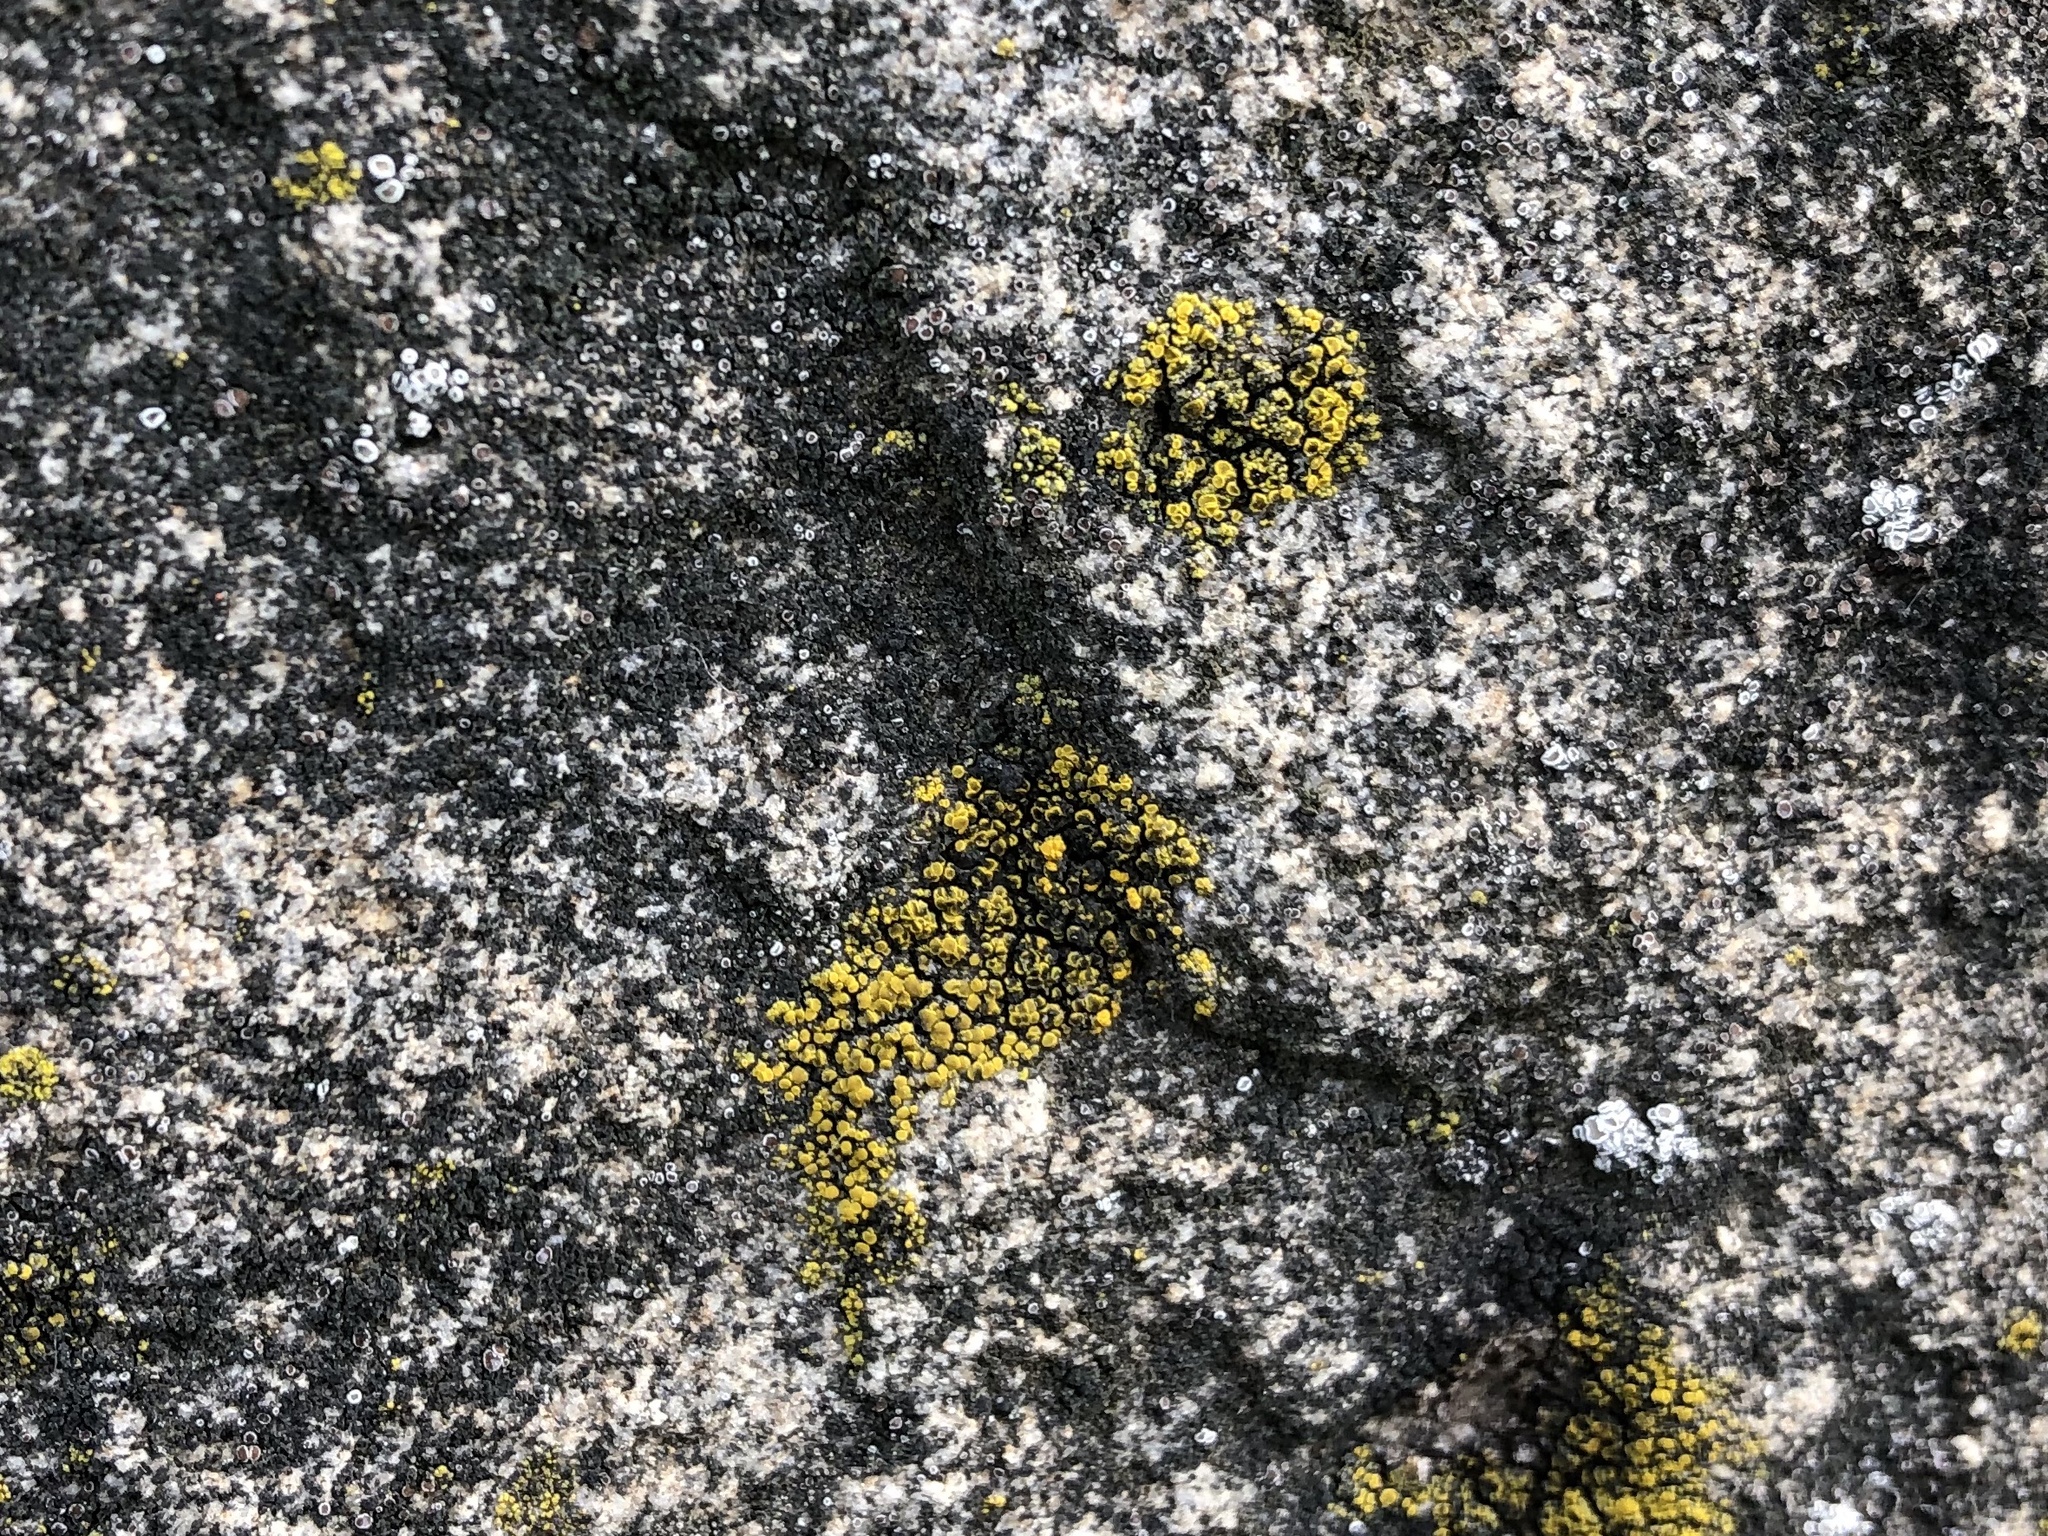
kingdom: Fungi
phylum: Ascomycota
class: Candelariomycetes
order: Candelariales
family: Candelariaceae
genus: Candelariella
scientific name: Candelariella vitellina
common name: Common goldspeck
